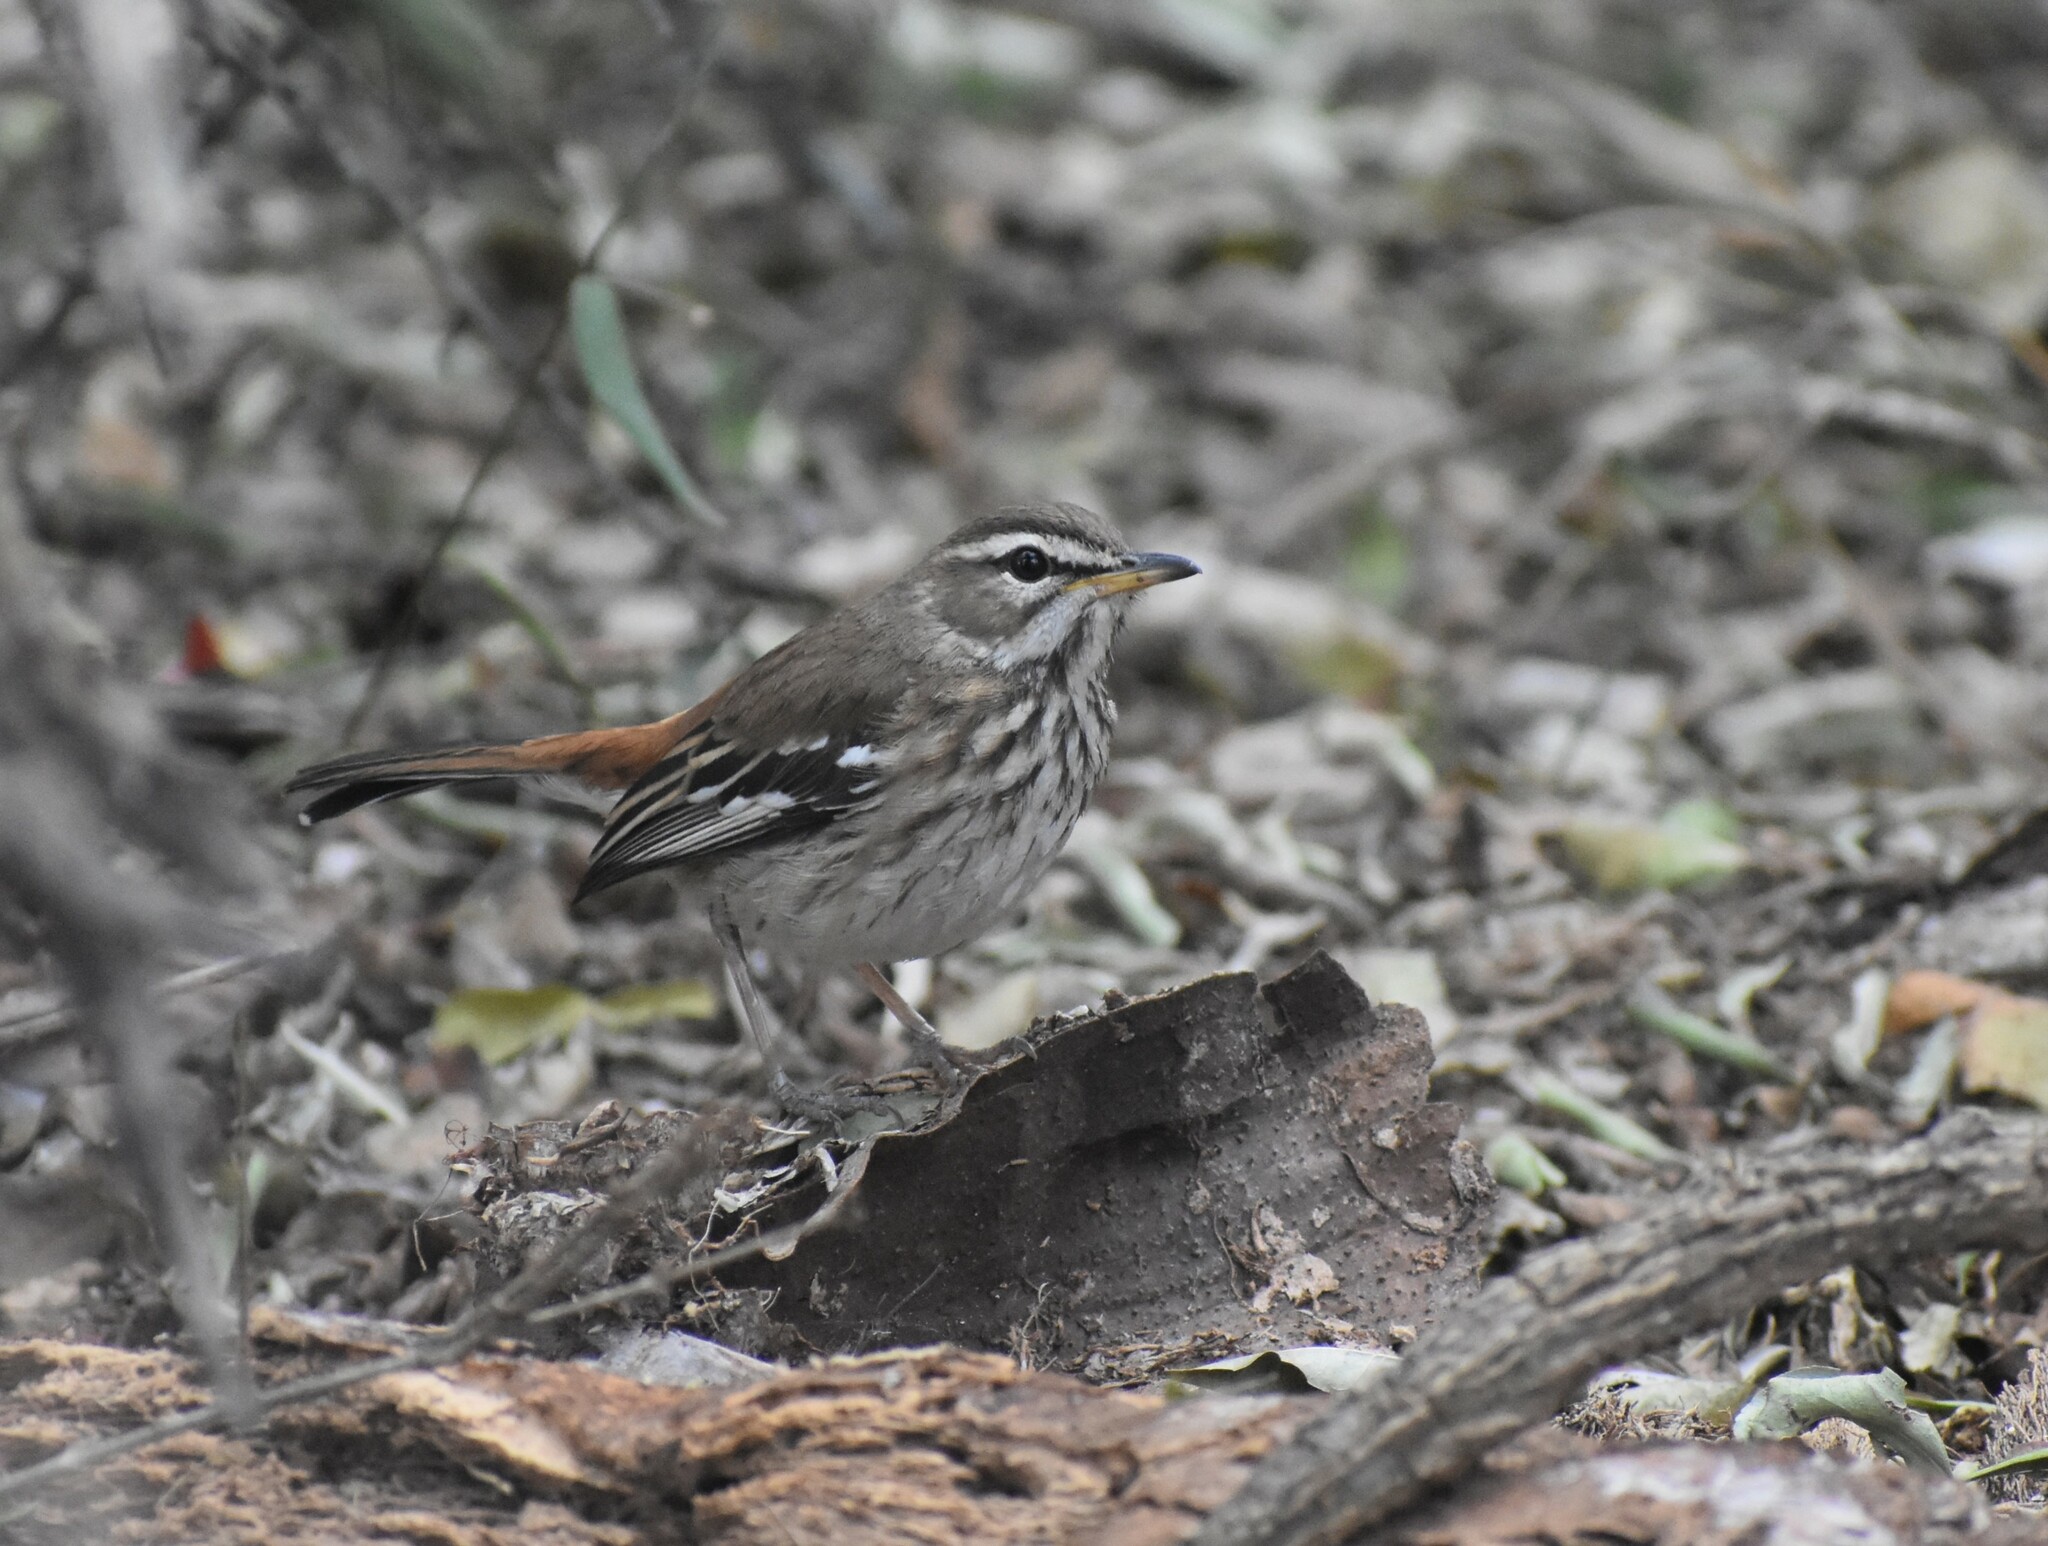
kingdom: Animalia
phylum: Chordata
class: Aves
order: Passeriformes
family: Muscicapidae
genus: Erythropygia
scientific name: Erythropygia leucophrys
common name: White-browed scrub robin
